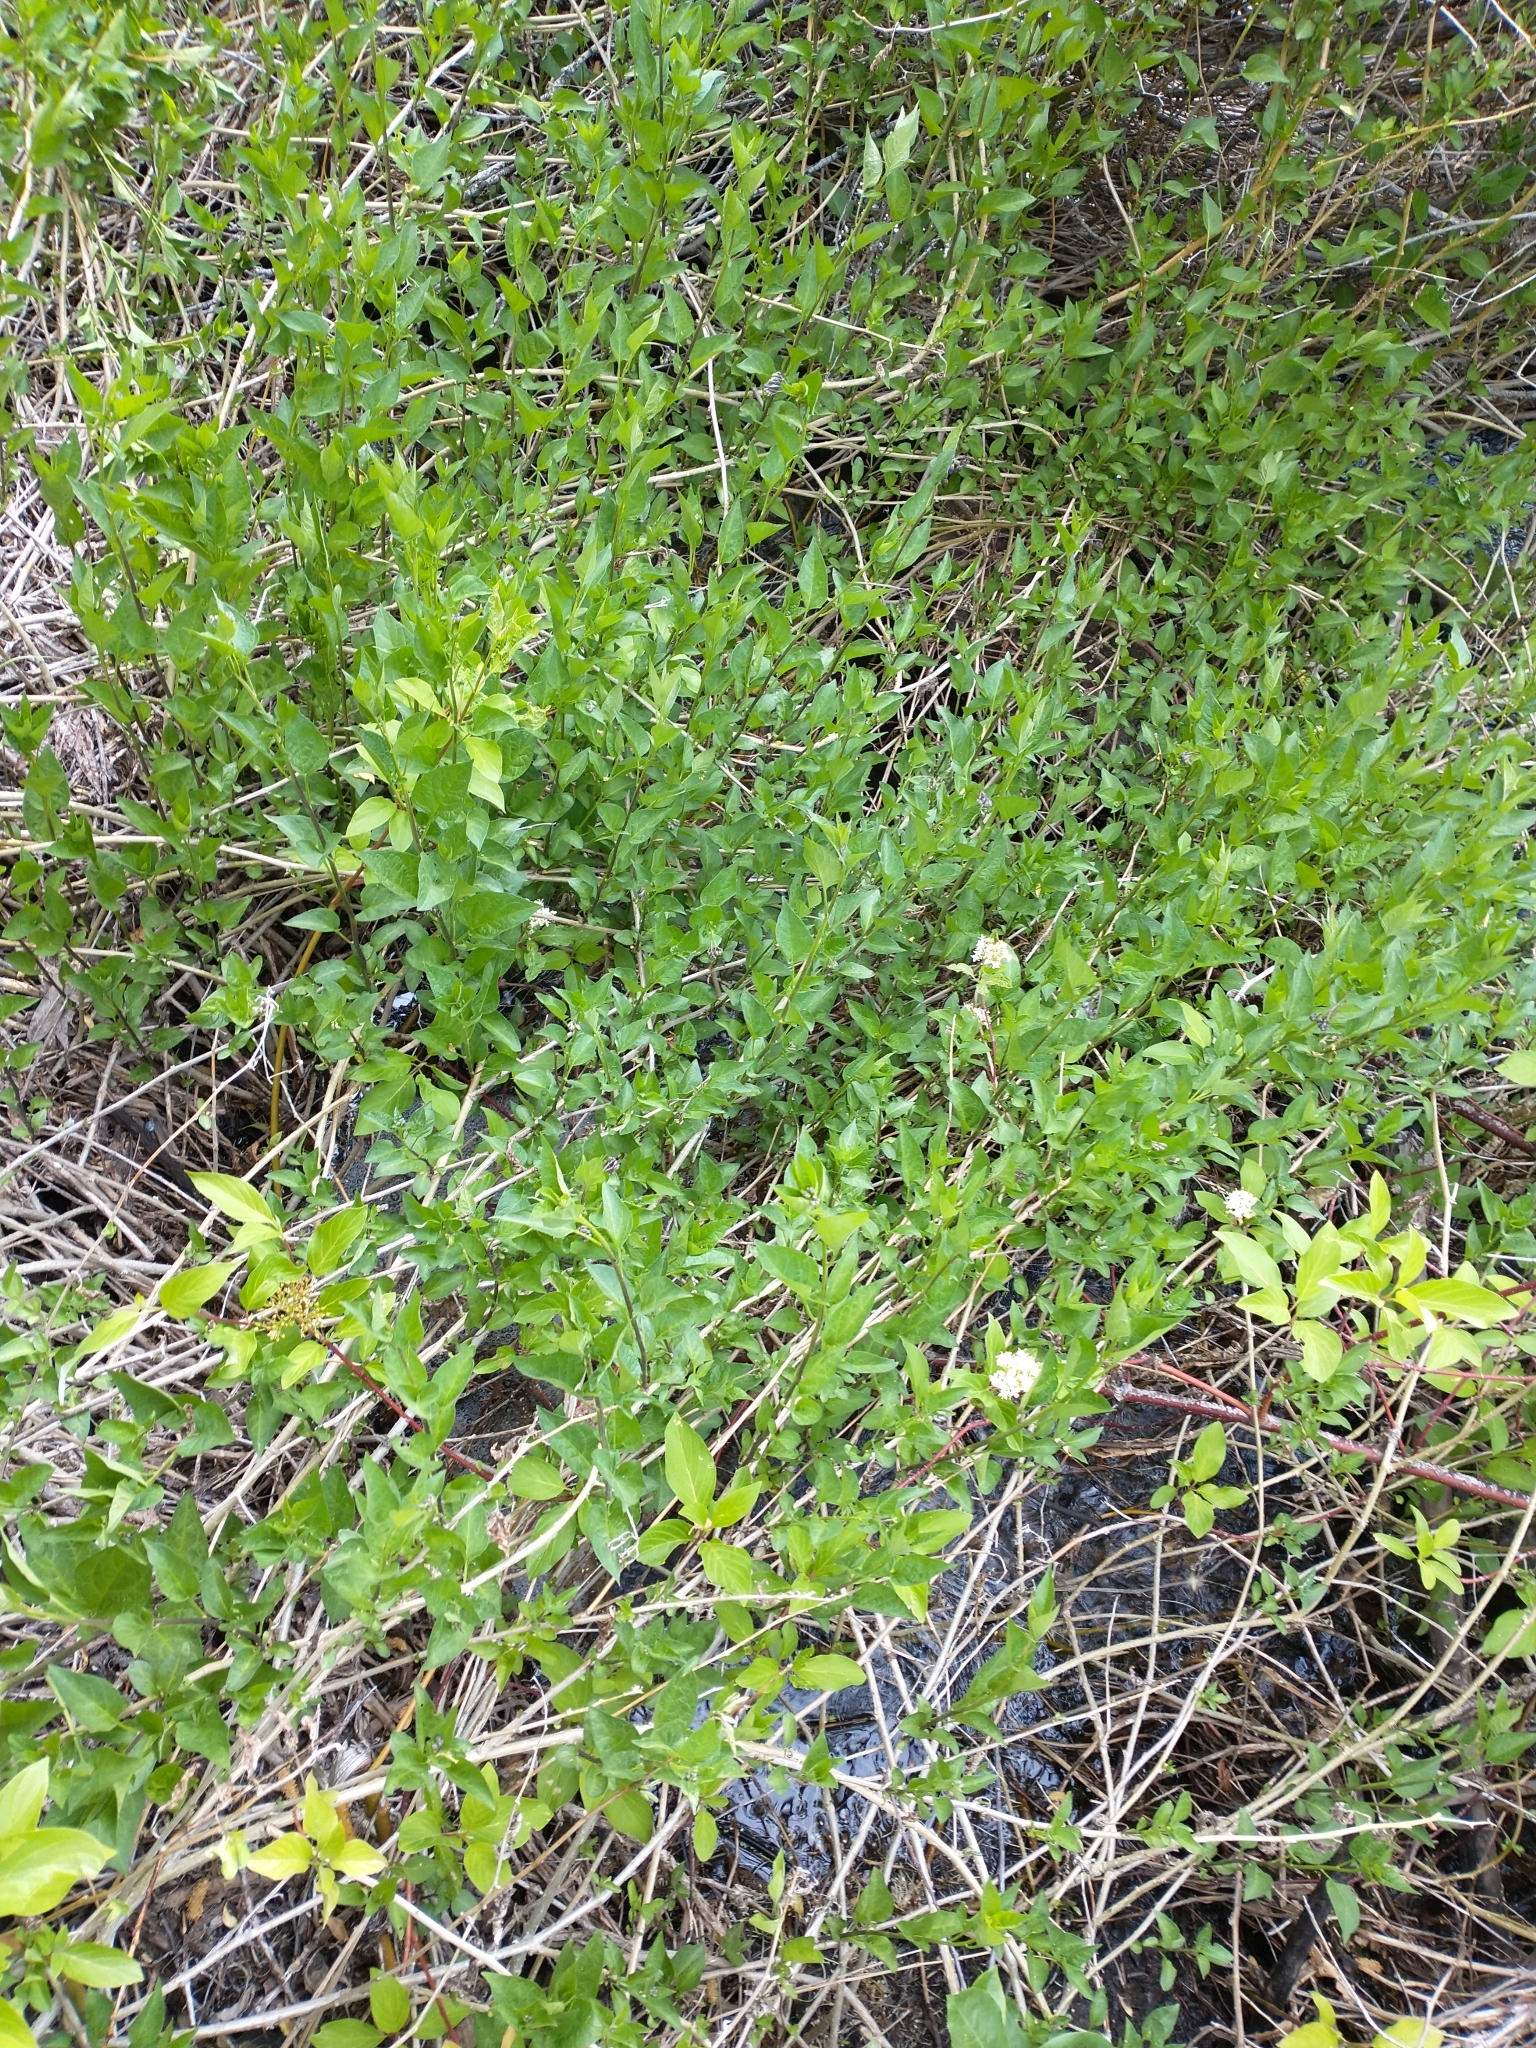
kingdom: Plantae
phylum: Tracheophyta
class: Magnoliopsida
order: Solanales
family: Solanaceae
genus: Solanum
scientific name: Solanum dulcamara
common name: Climbing nightshade
